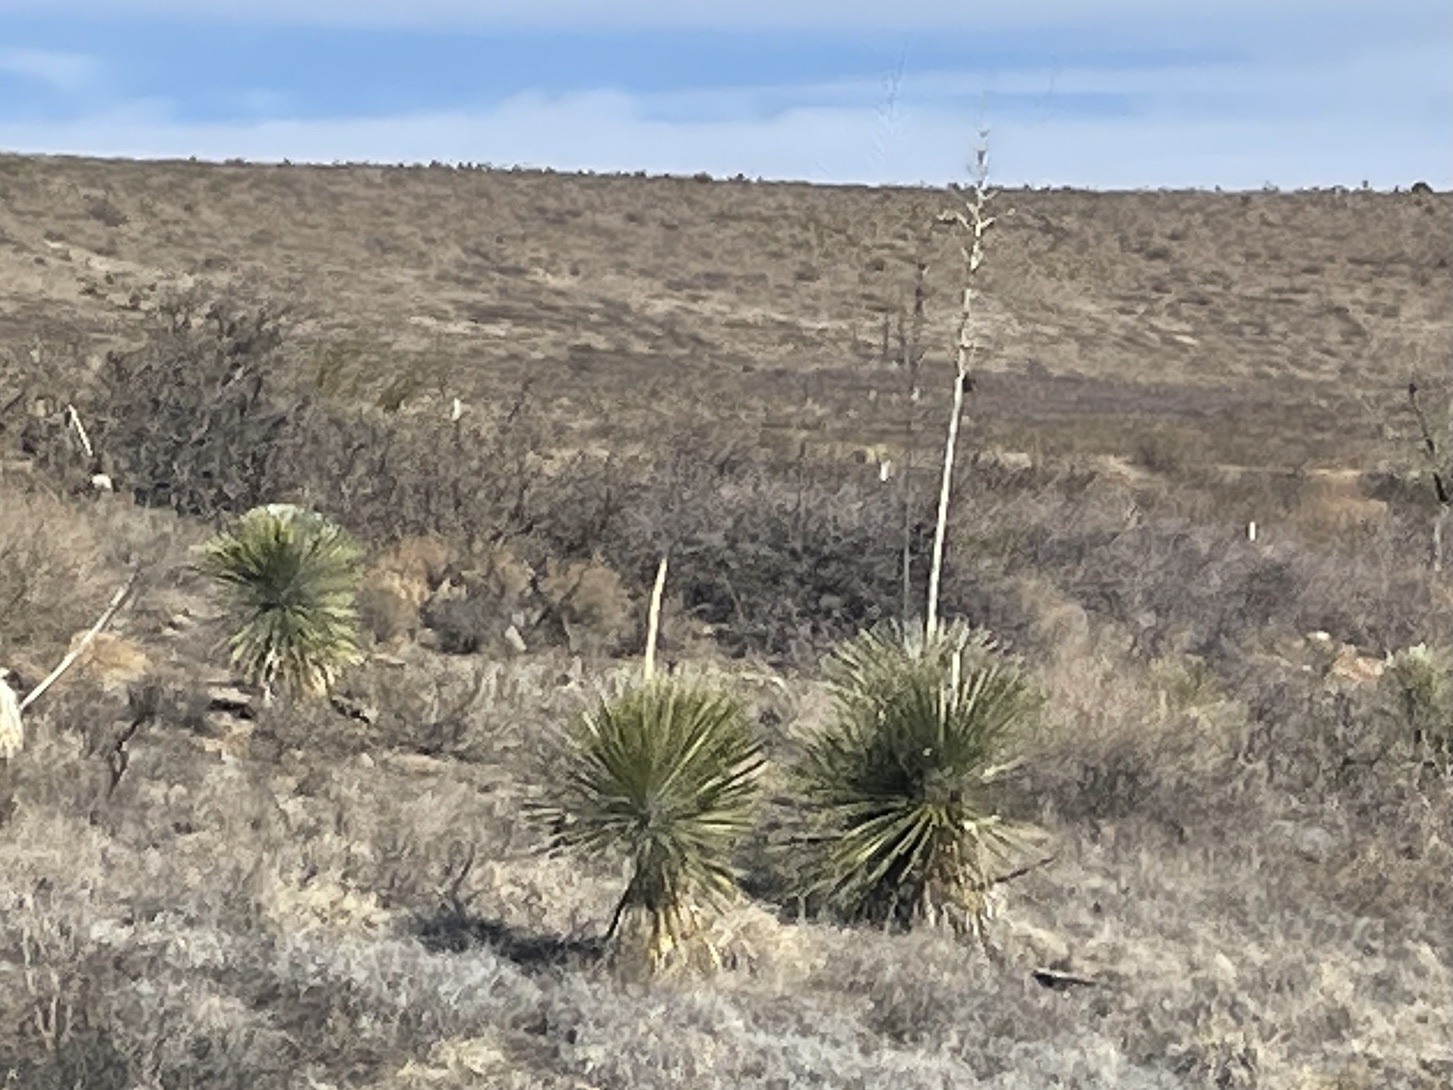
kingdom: Plantae
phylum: Tracheophyta
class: Liliopsida
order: Asparagales
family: Asparagaceae
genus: Yucca
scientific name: Yucca elata
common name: Palmella
